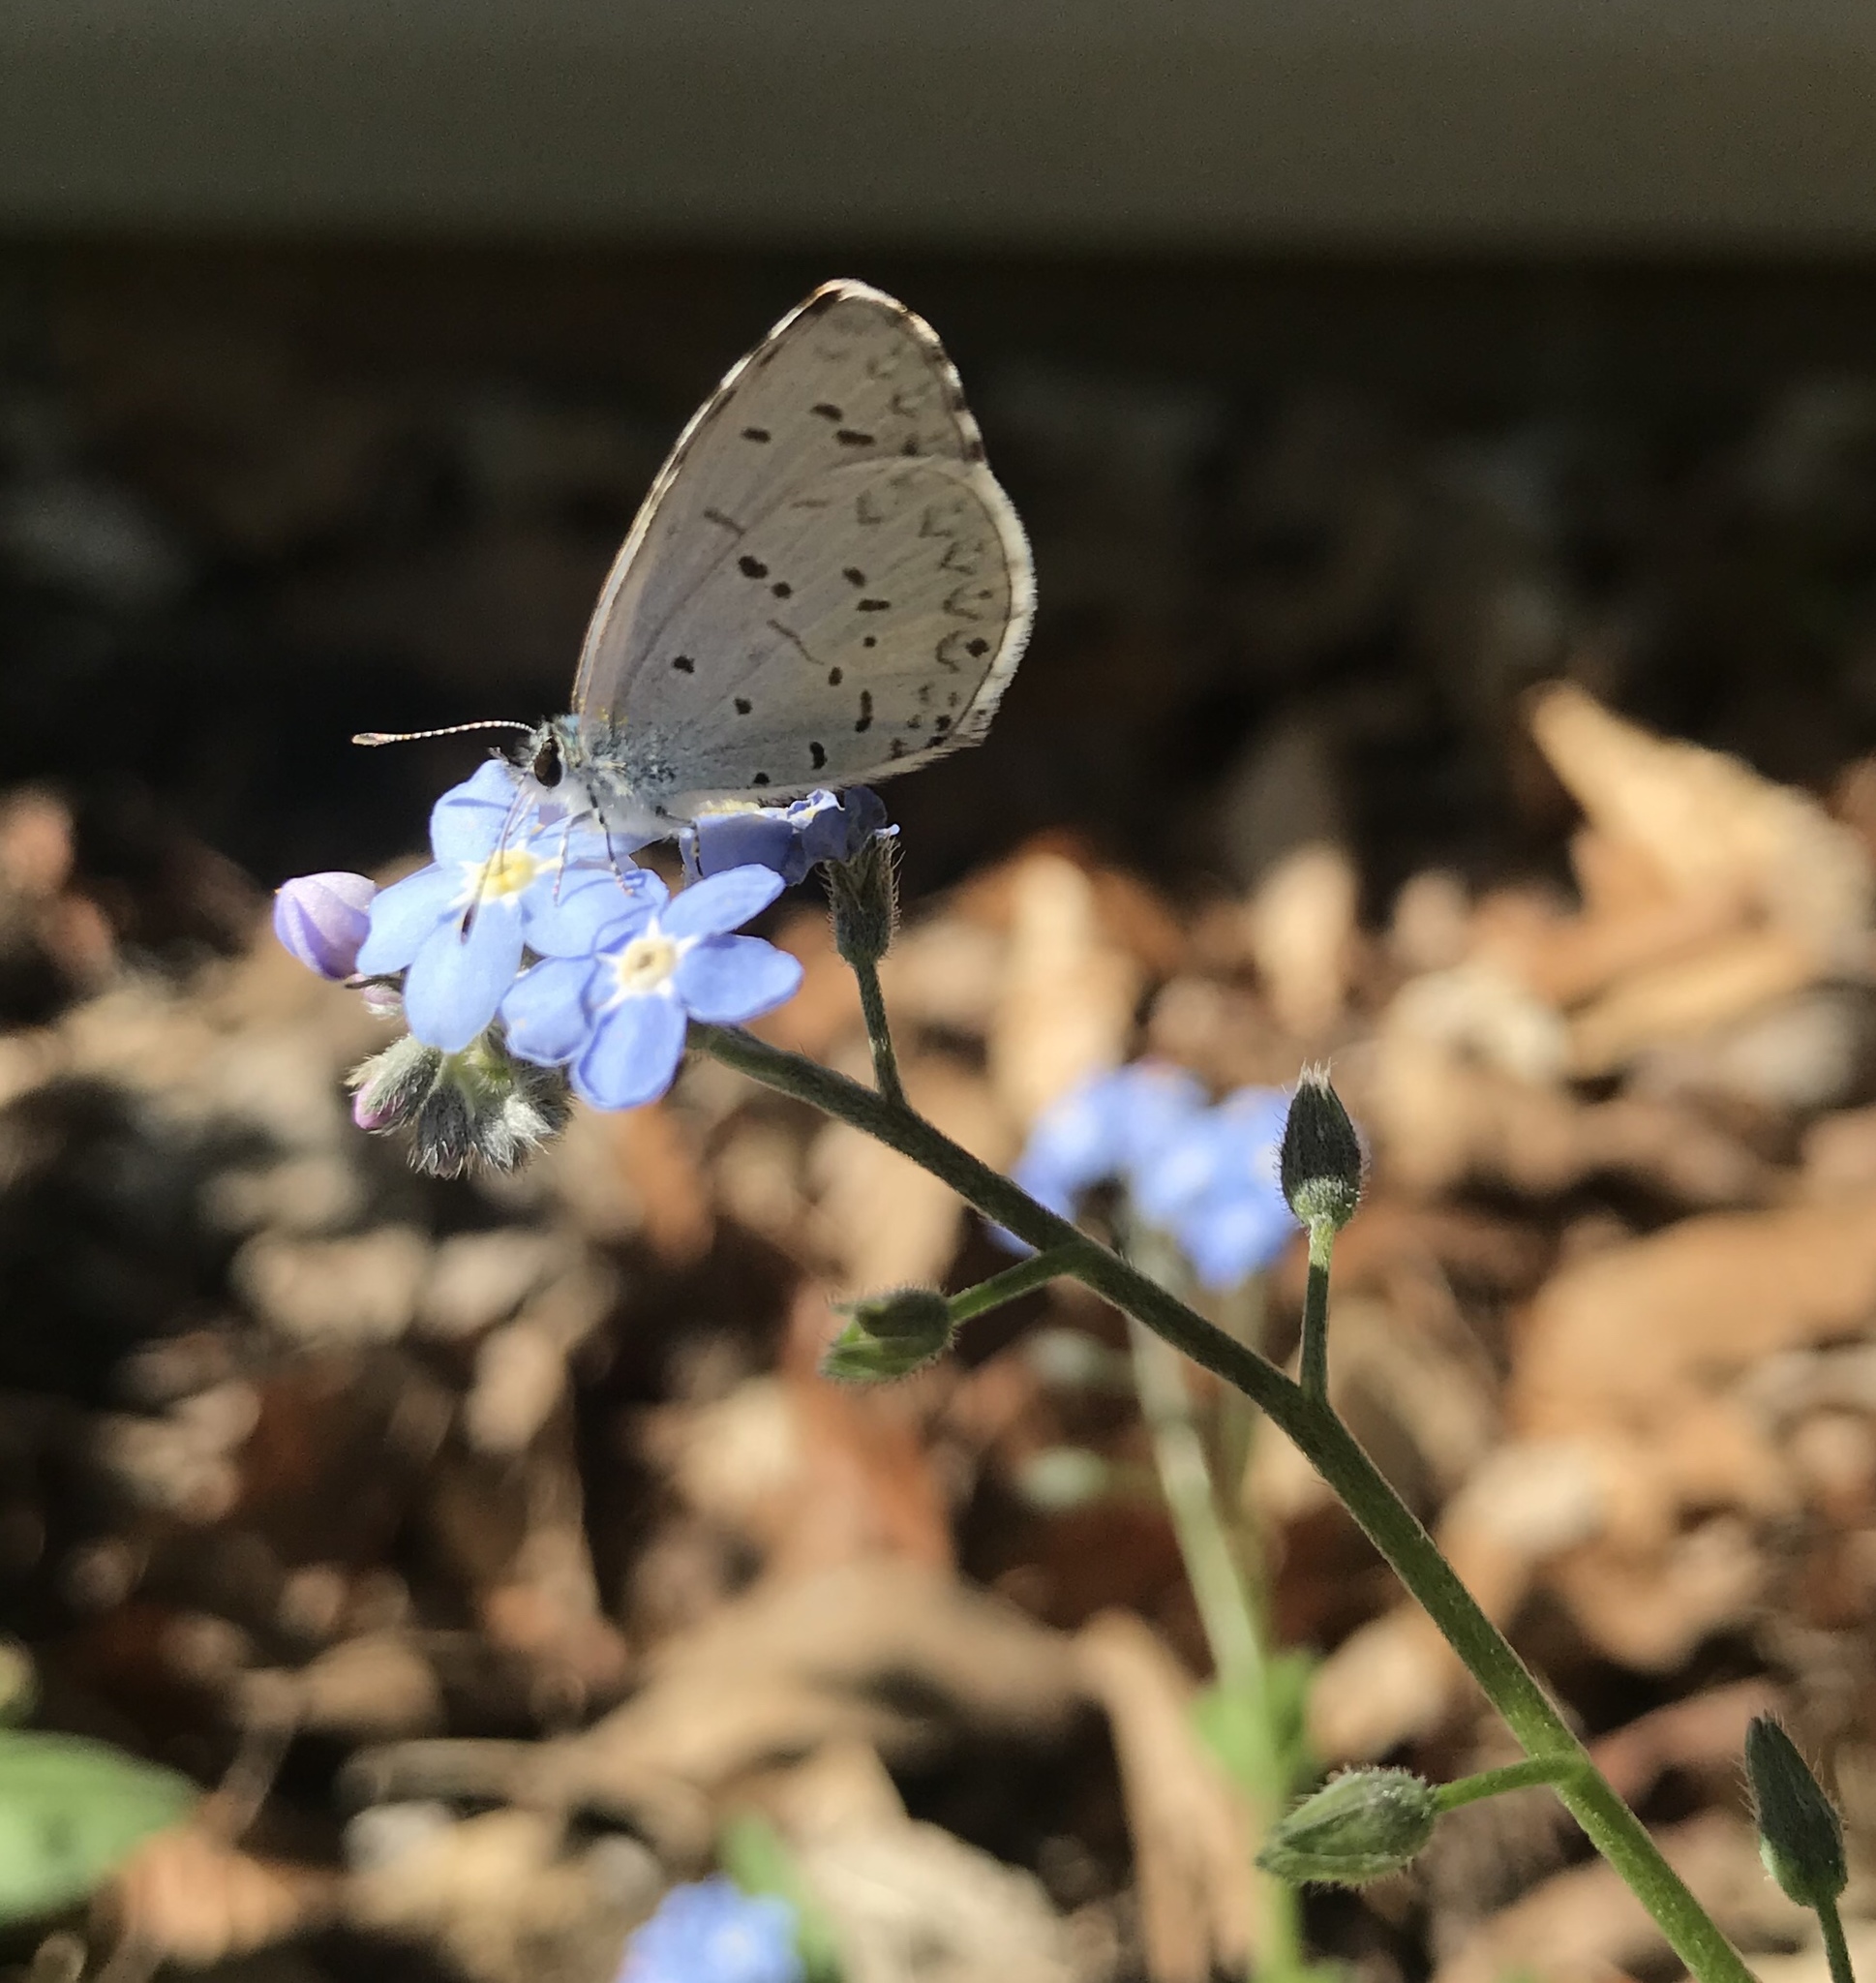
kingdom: Animalia
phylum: Arthropoda
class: Insecta
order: Lepidoptera
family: Lycaenidae
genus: Celastrina
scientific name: Celastrina ladon
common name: Spring azure
